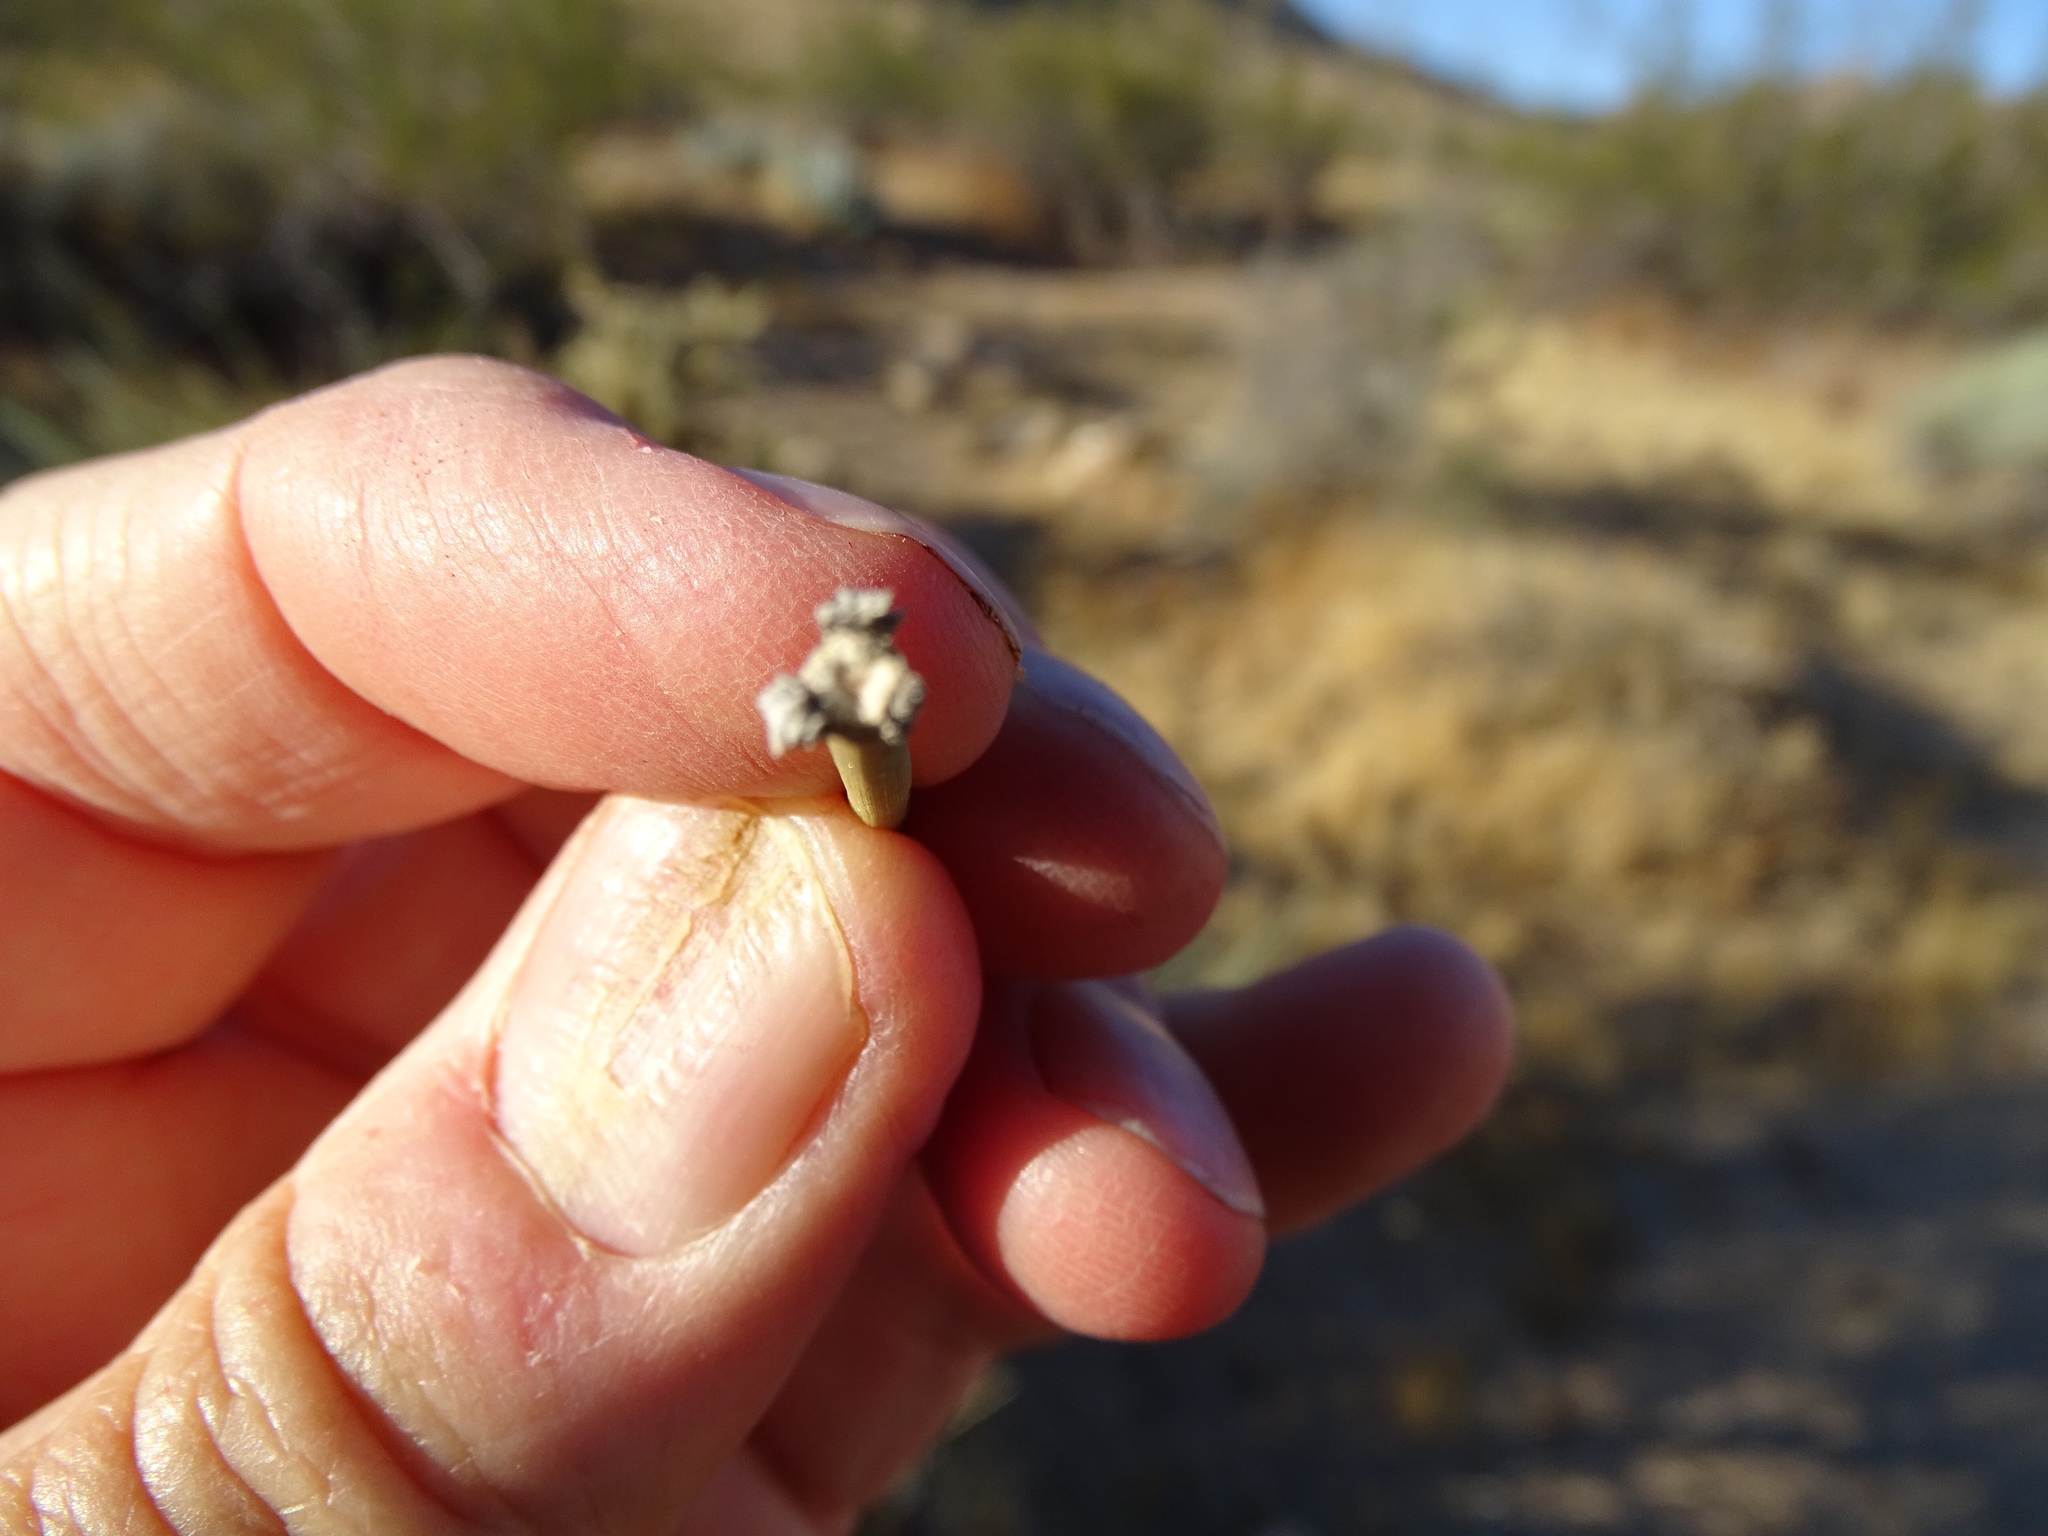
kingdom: Plantae
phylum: Tracheophyta
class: Gnetopsida
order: Ephedrales
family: Ephedraceae
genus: Ephedra
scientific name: Ephedra californica
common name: California ephedra
